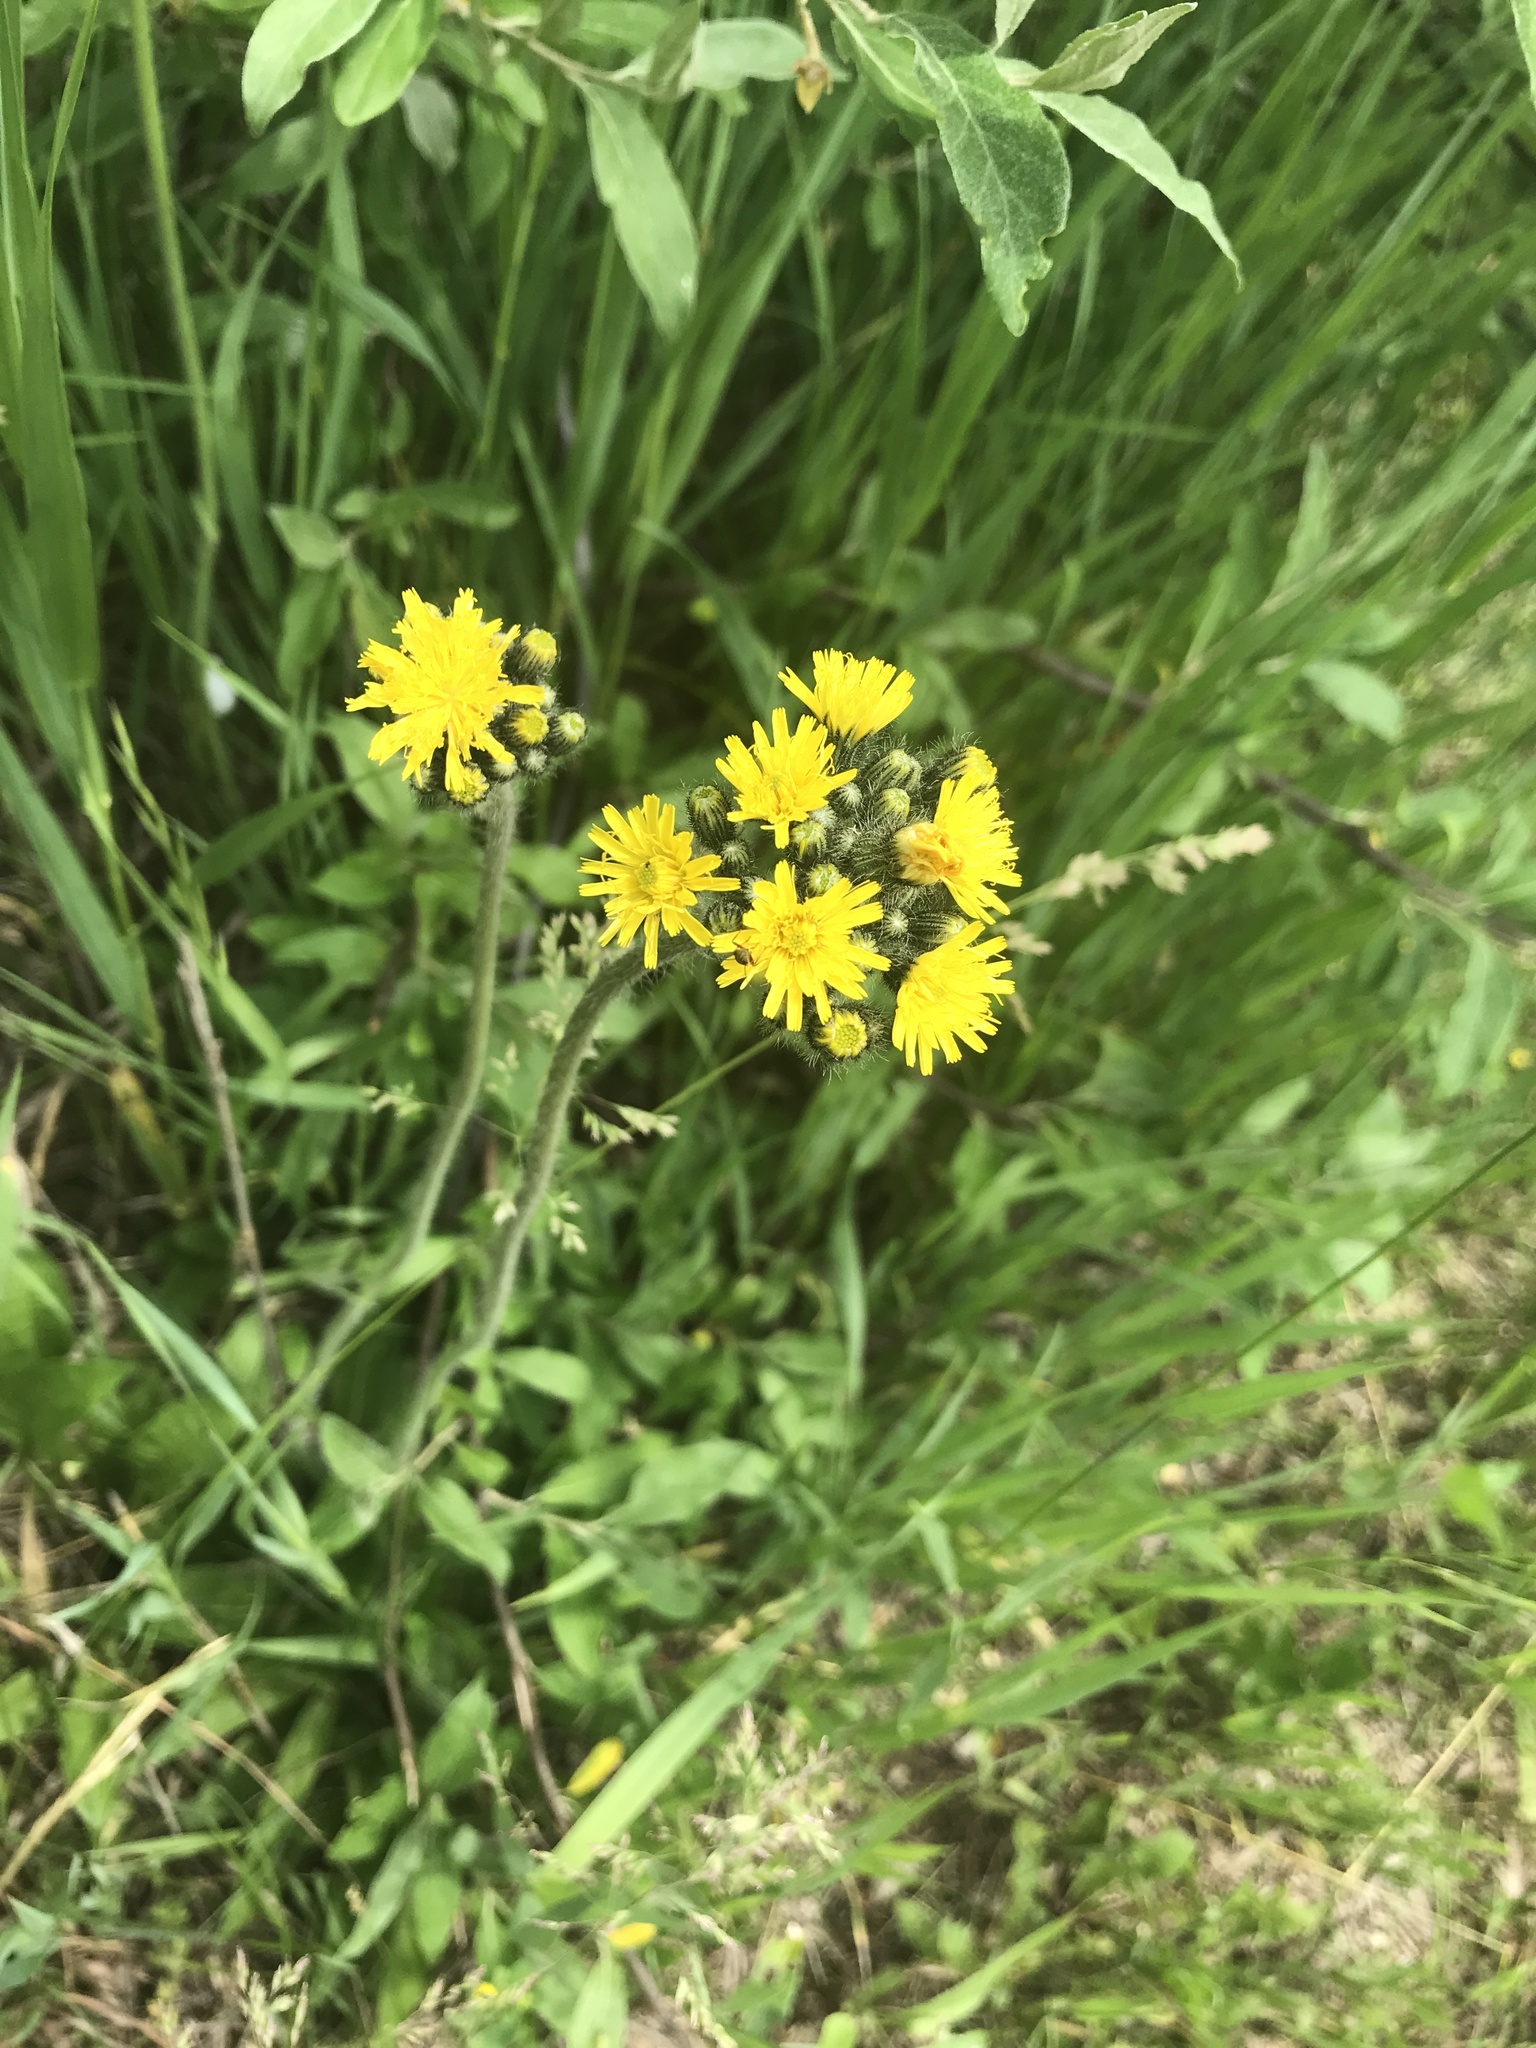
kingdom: Plantae
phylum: Tracheophyta
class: Magnoliopsida
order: Asterales
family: Asteraceae
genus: Pilosella
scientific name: Pilosella caespitosa
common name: Yellow fox-and-cubs
